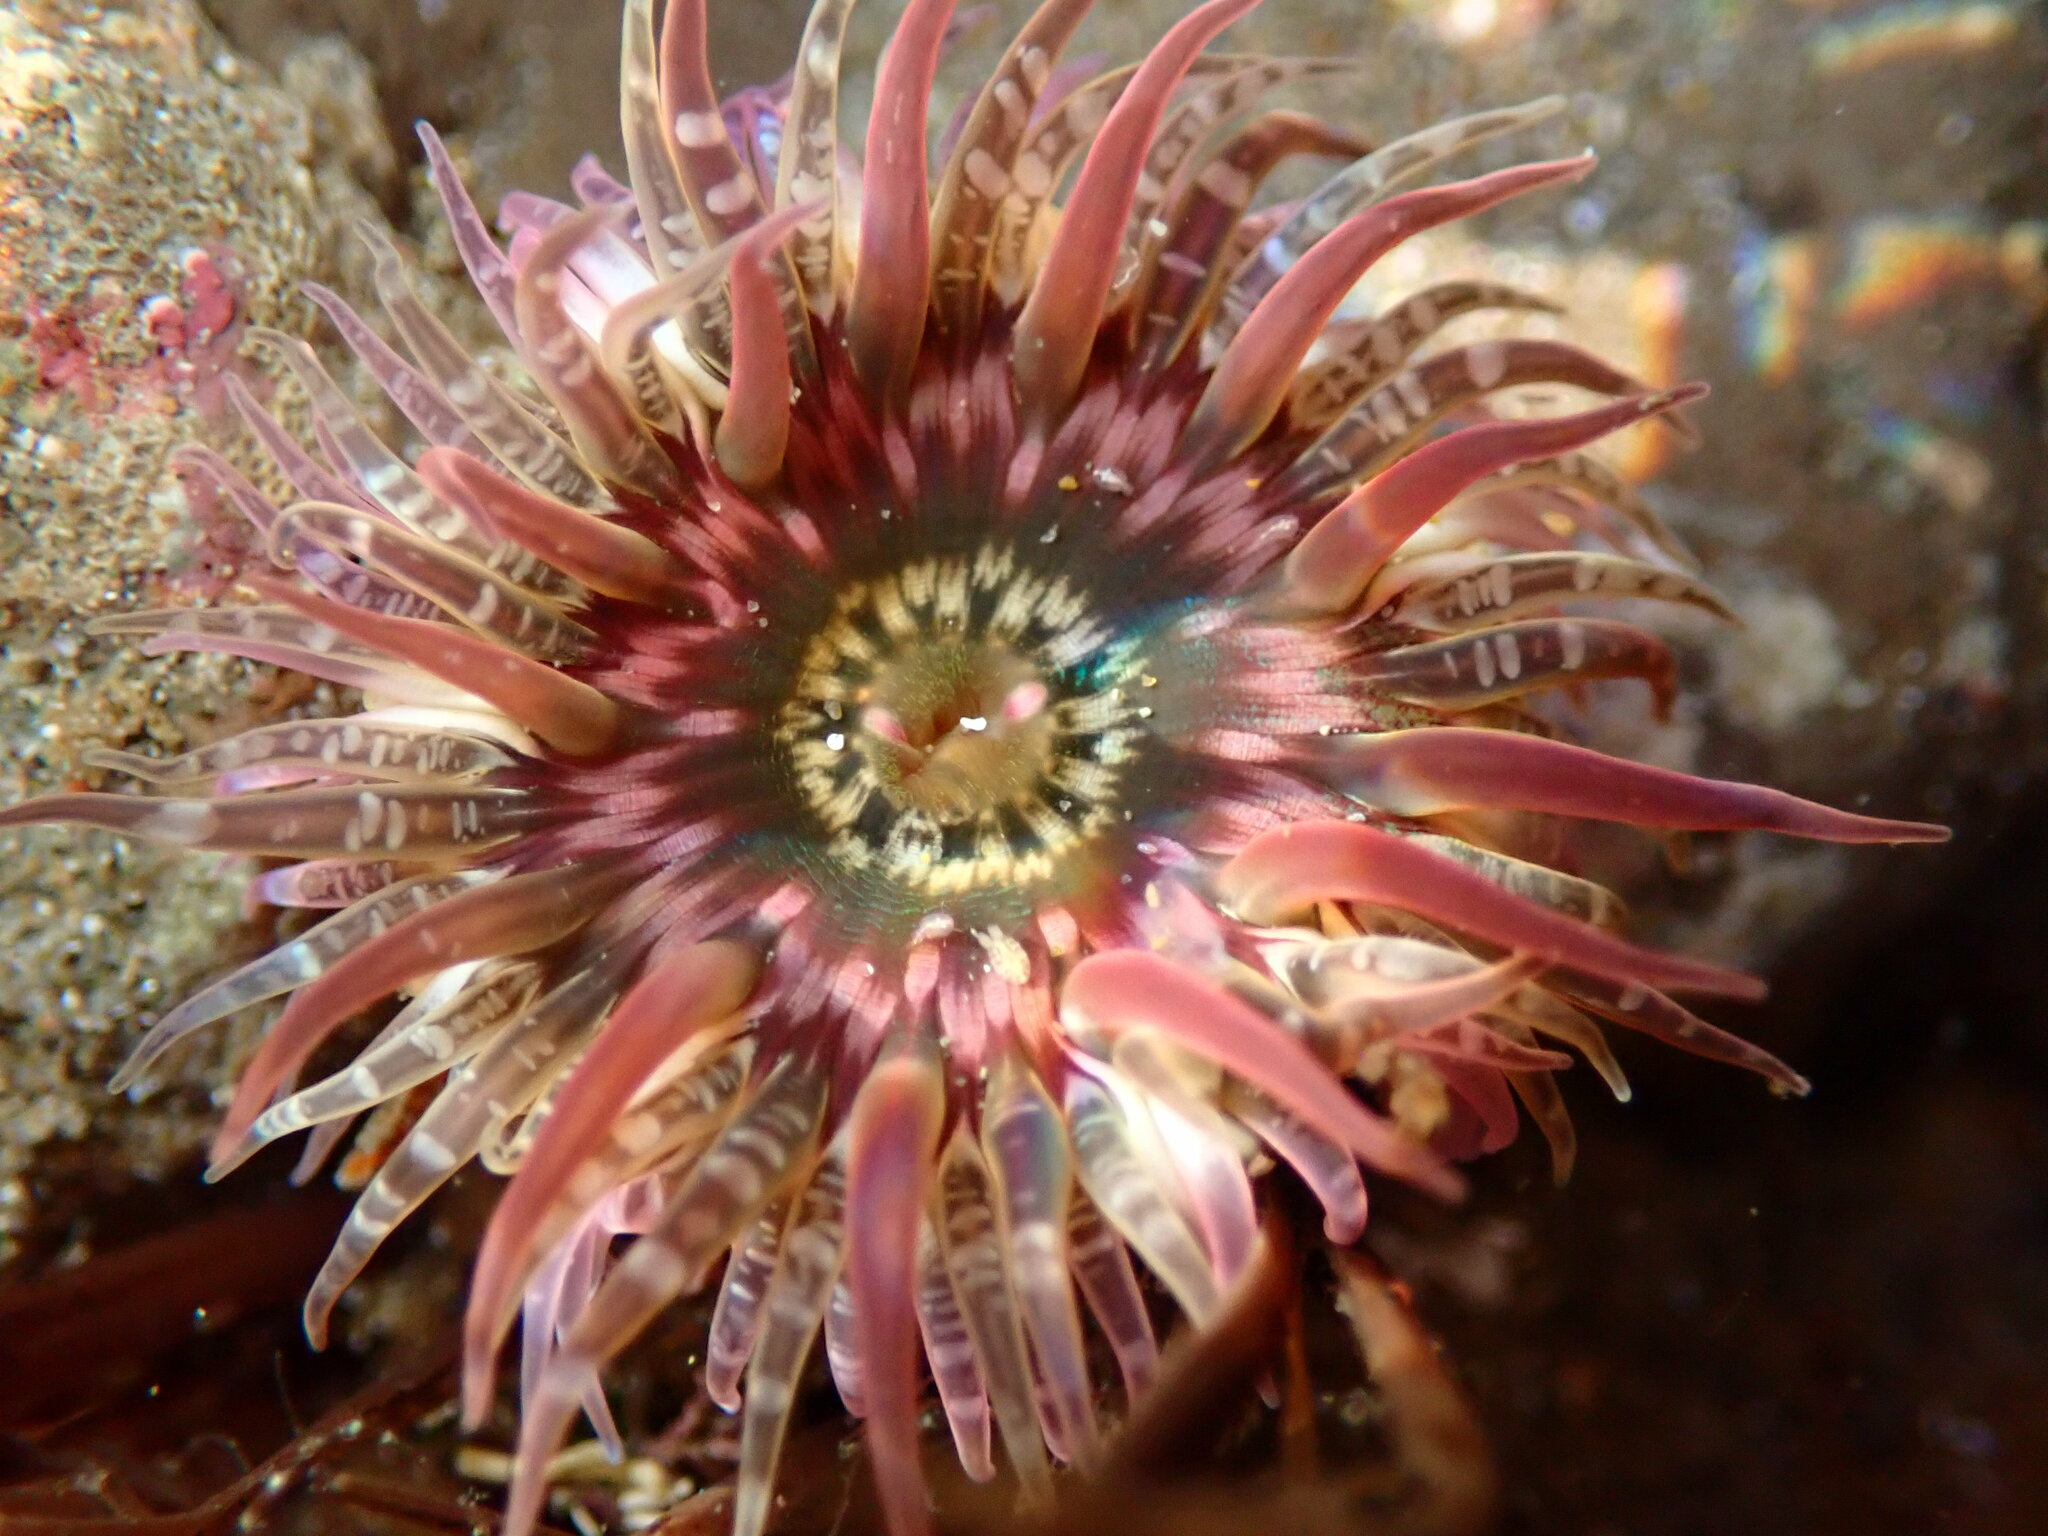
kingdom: Animalia
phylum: Cnidaria
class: Anthozoa
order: Actiniaria
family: Actiniidae
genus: Anthopleura
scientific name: Anthopleura artemisia
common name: Buried sea anemone
